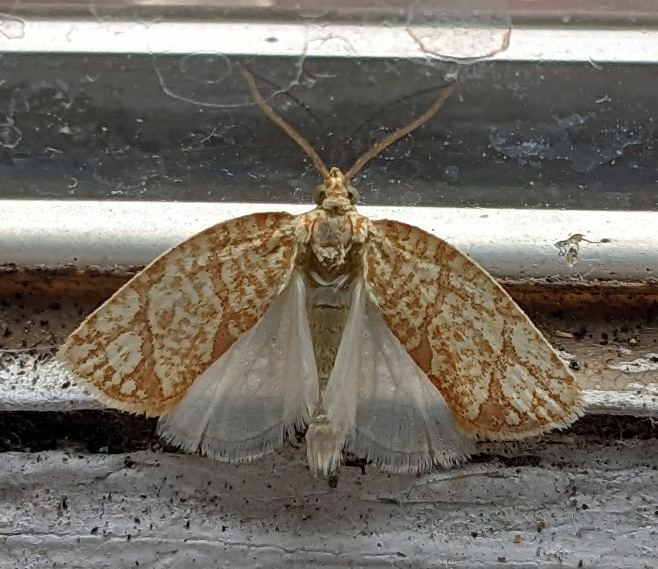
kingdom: Animalia
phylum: Arthropoda
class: Insecta
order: Lepidoptera
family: Tortricidae
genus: Argyrotaenia
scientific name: Argyrotaenia quercifoliana
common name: Yellow-winged oak leafroller moth
